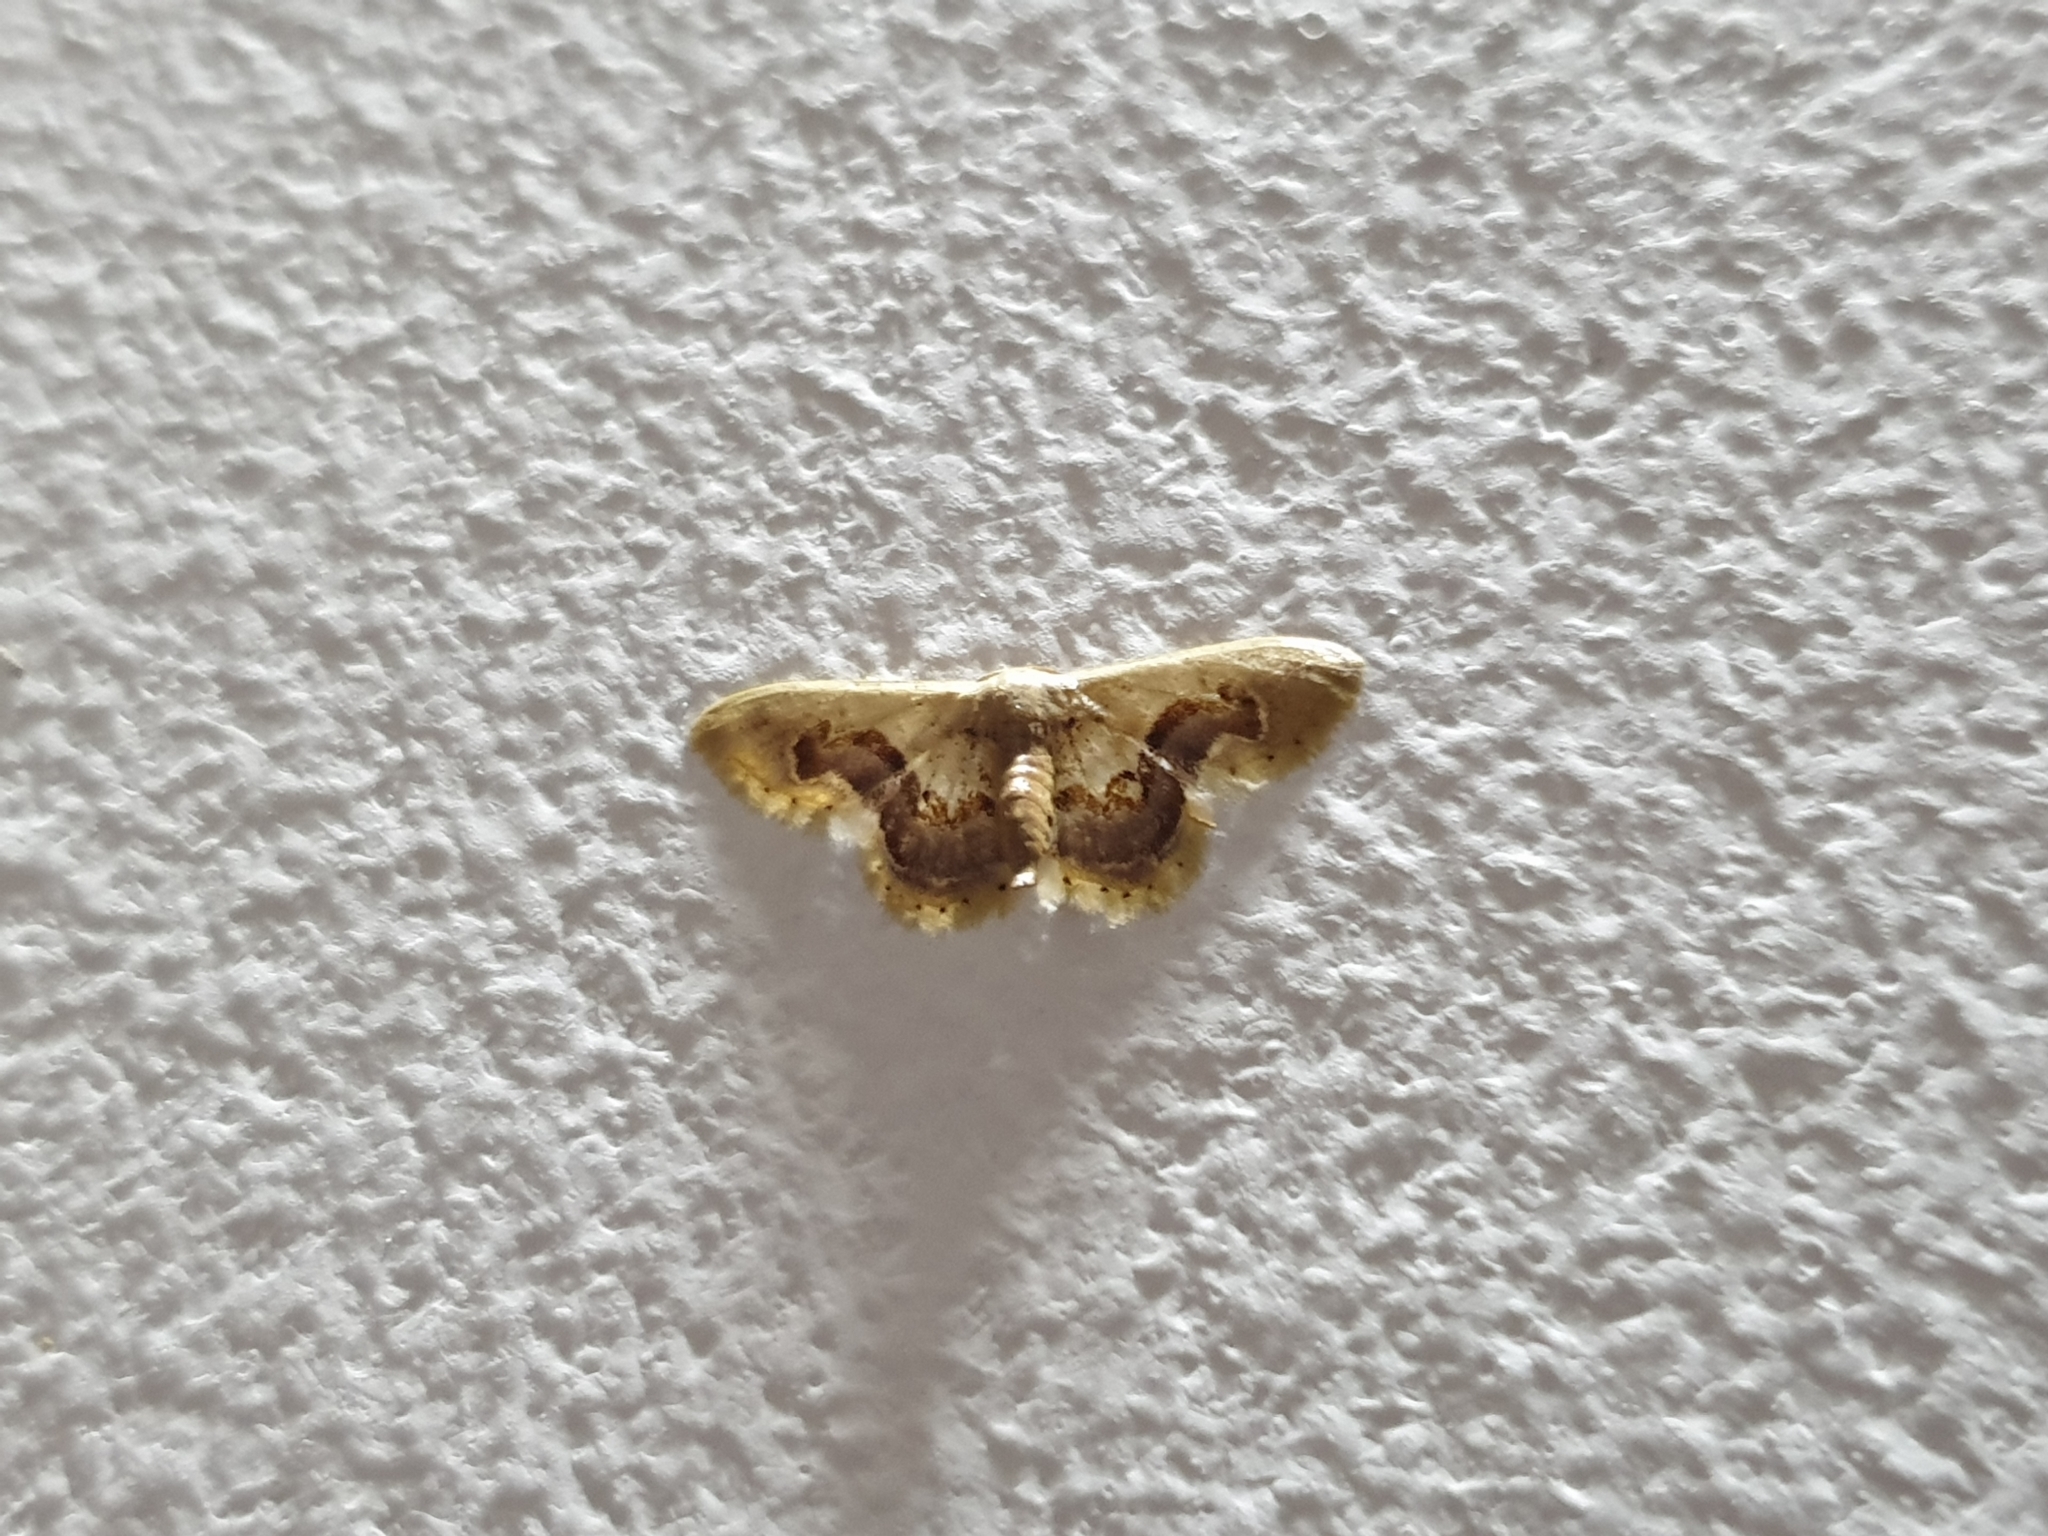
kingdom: Animalia
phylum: Arthropoda
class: Insecta
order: Lepidoptera
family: Geometridae
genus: Idaea
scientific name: Idaea gemmaria
